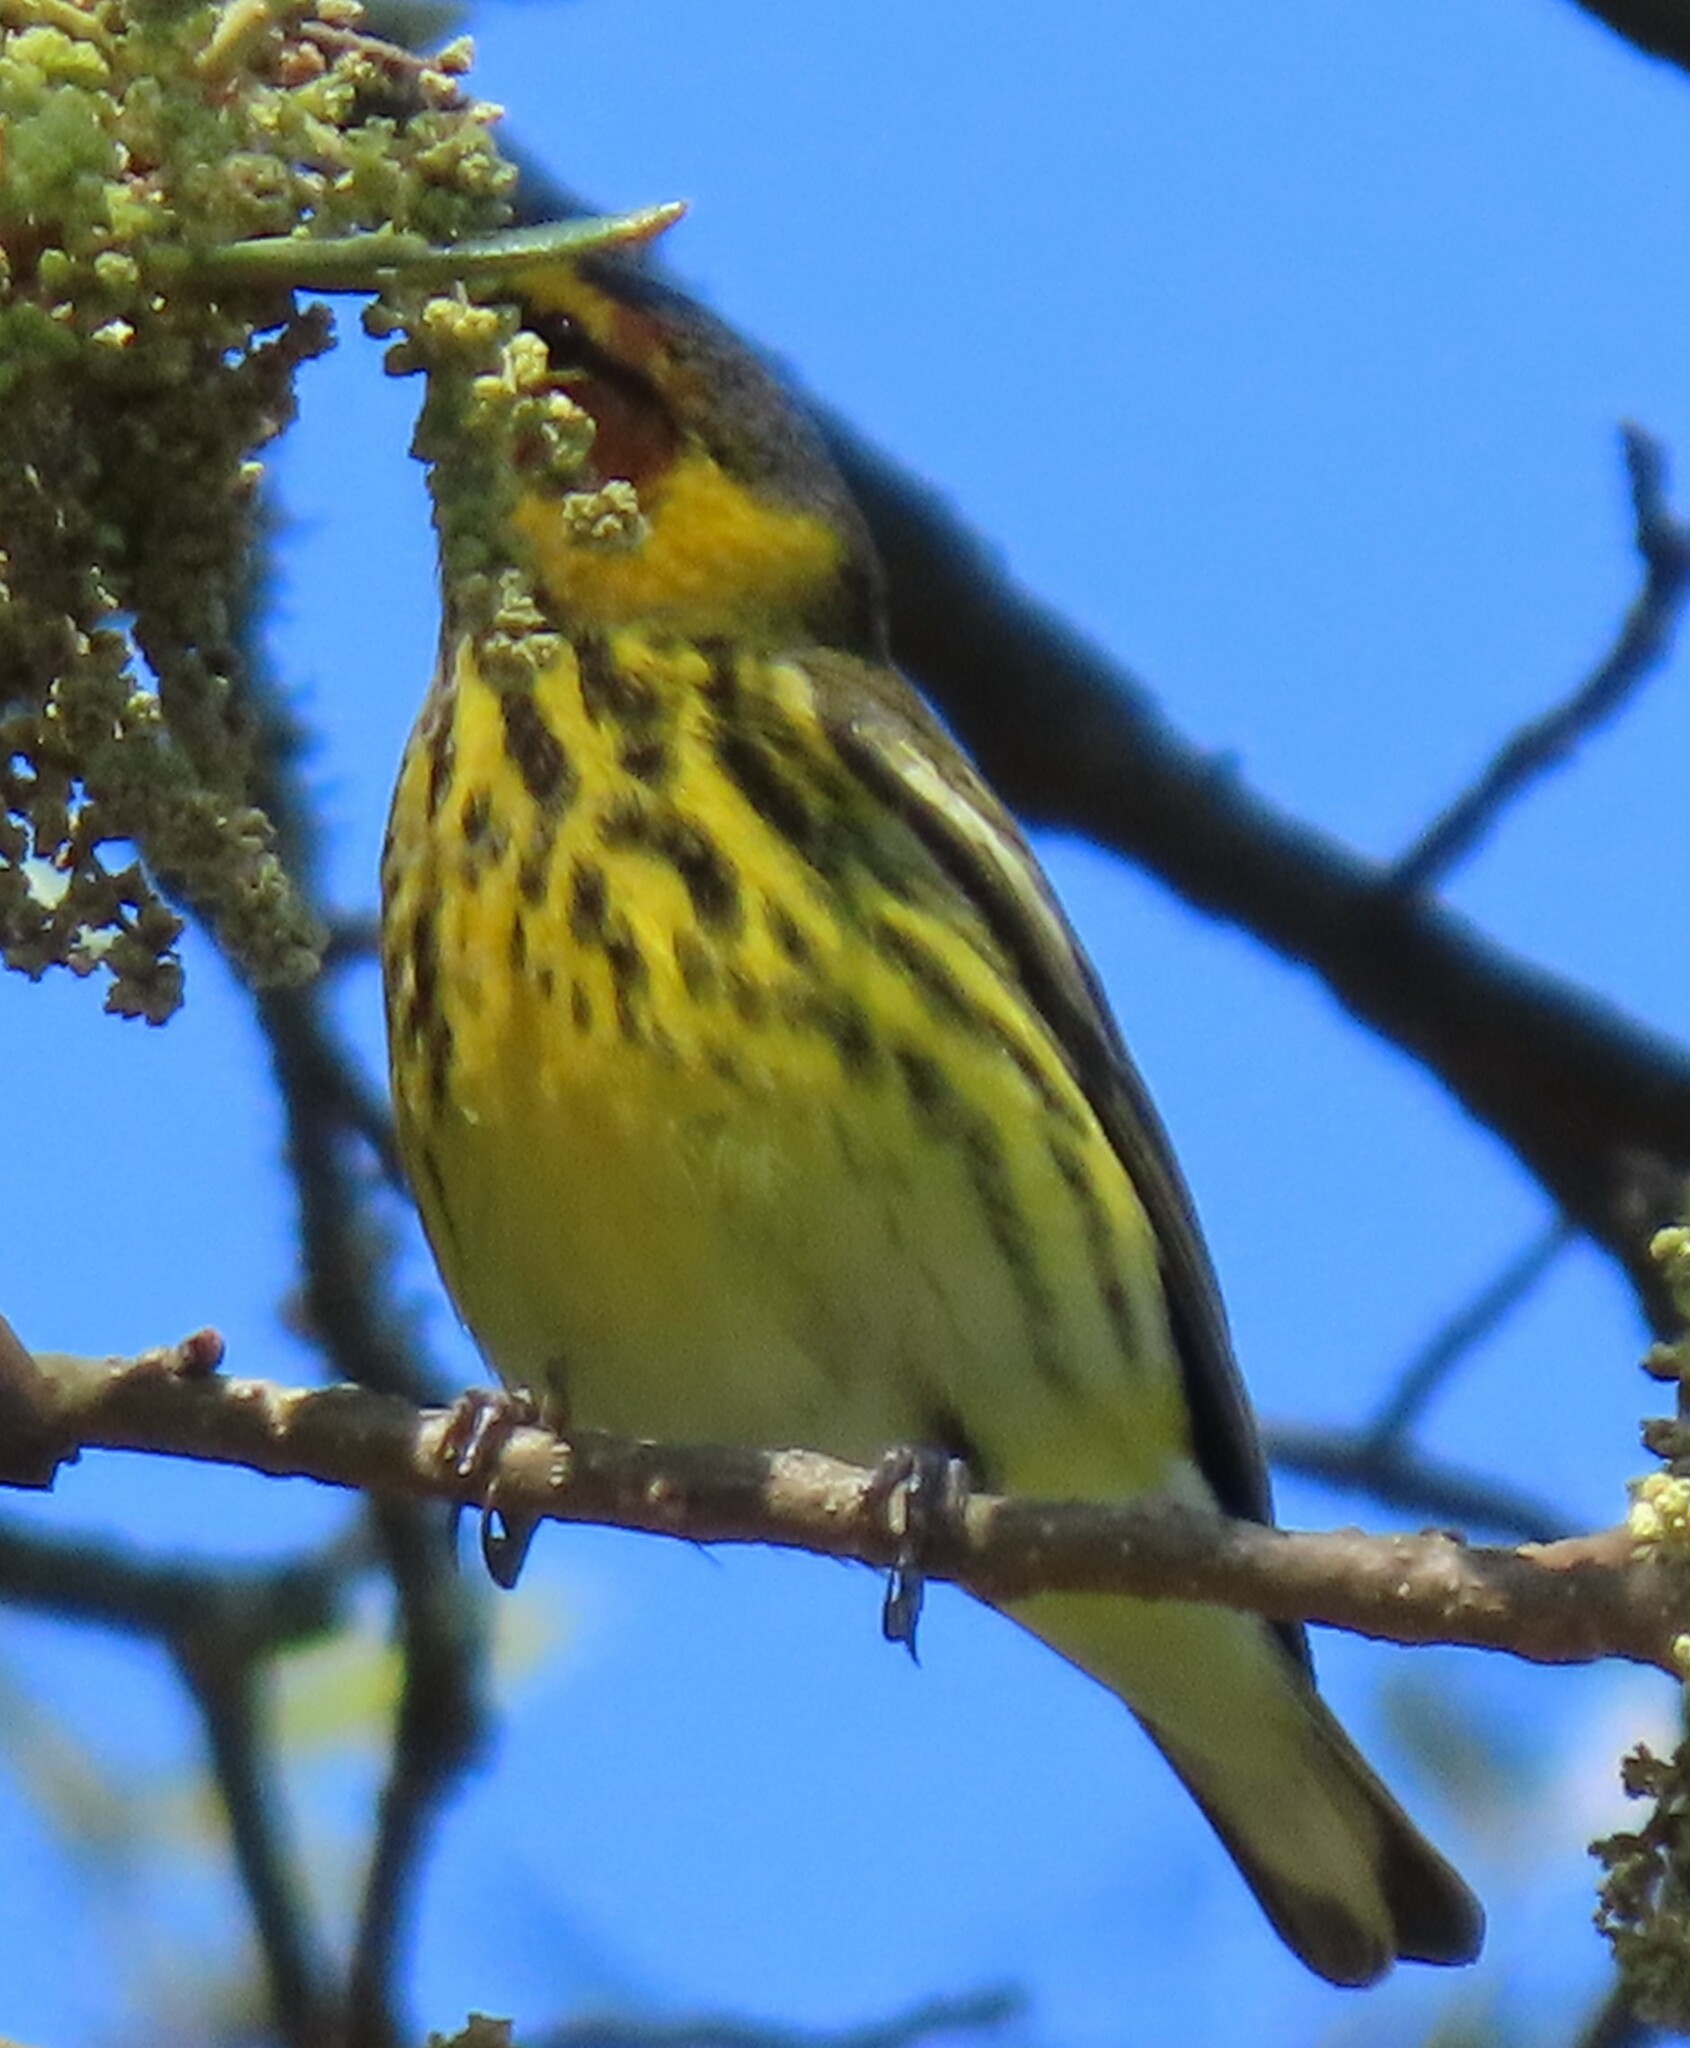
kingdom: Animalia
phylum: Chordata
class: Aves
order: Passeriformes
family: Parulidae
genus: Setophaga
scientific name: Setophaga tigrina
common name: Cape may warbler
